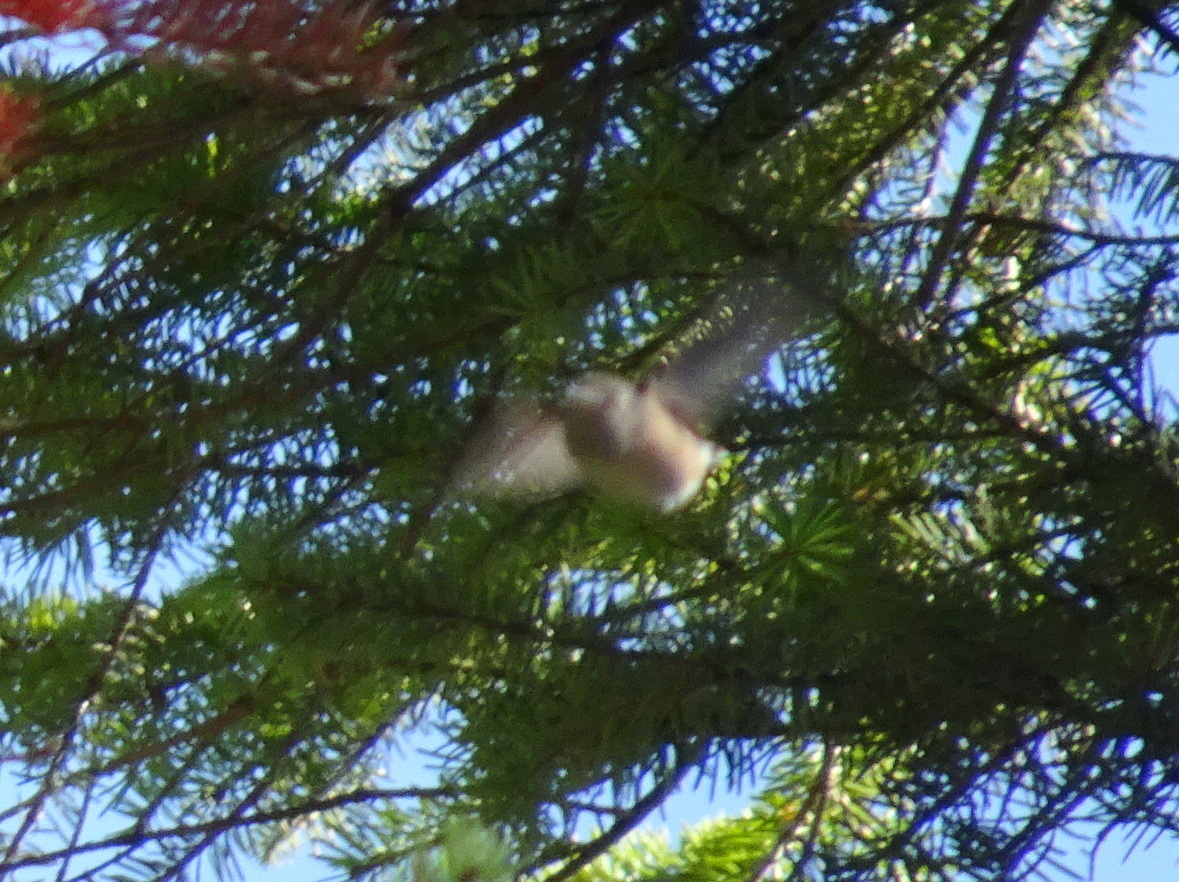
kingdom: Animalia
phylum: Chordata
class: Aves
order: Apodiformes
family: Trochilidae
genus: Selasphorus
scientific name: Selasphorus calliope
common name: Calliope hummingbird
